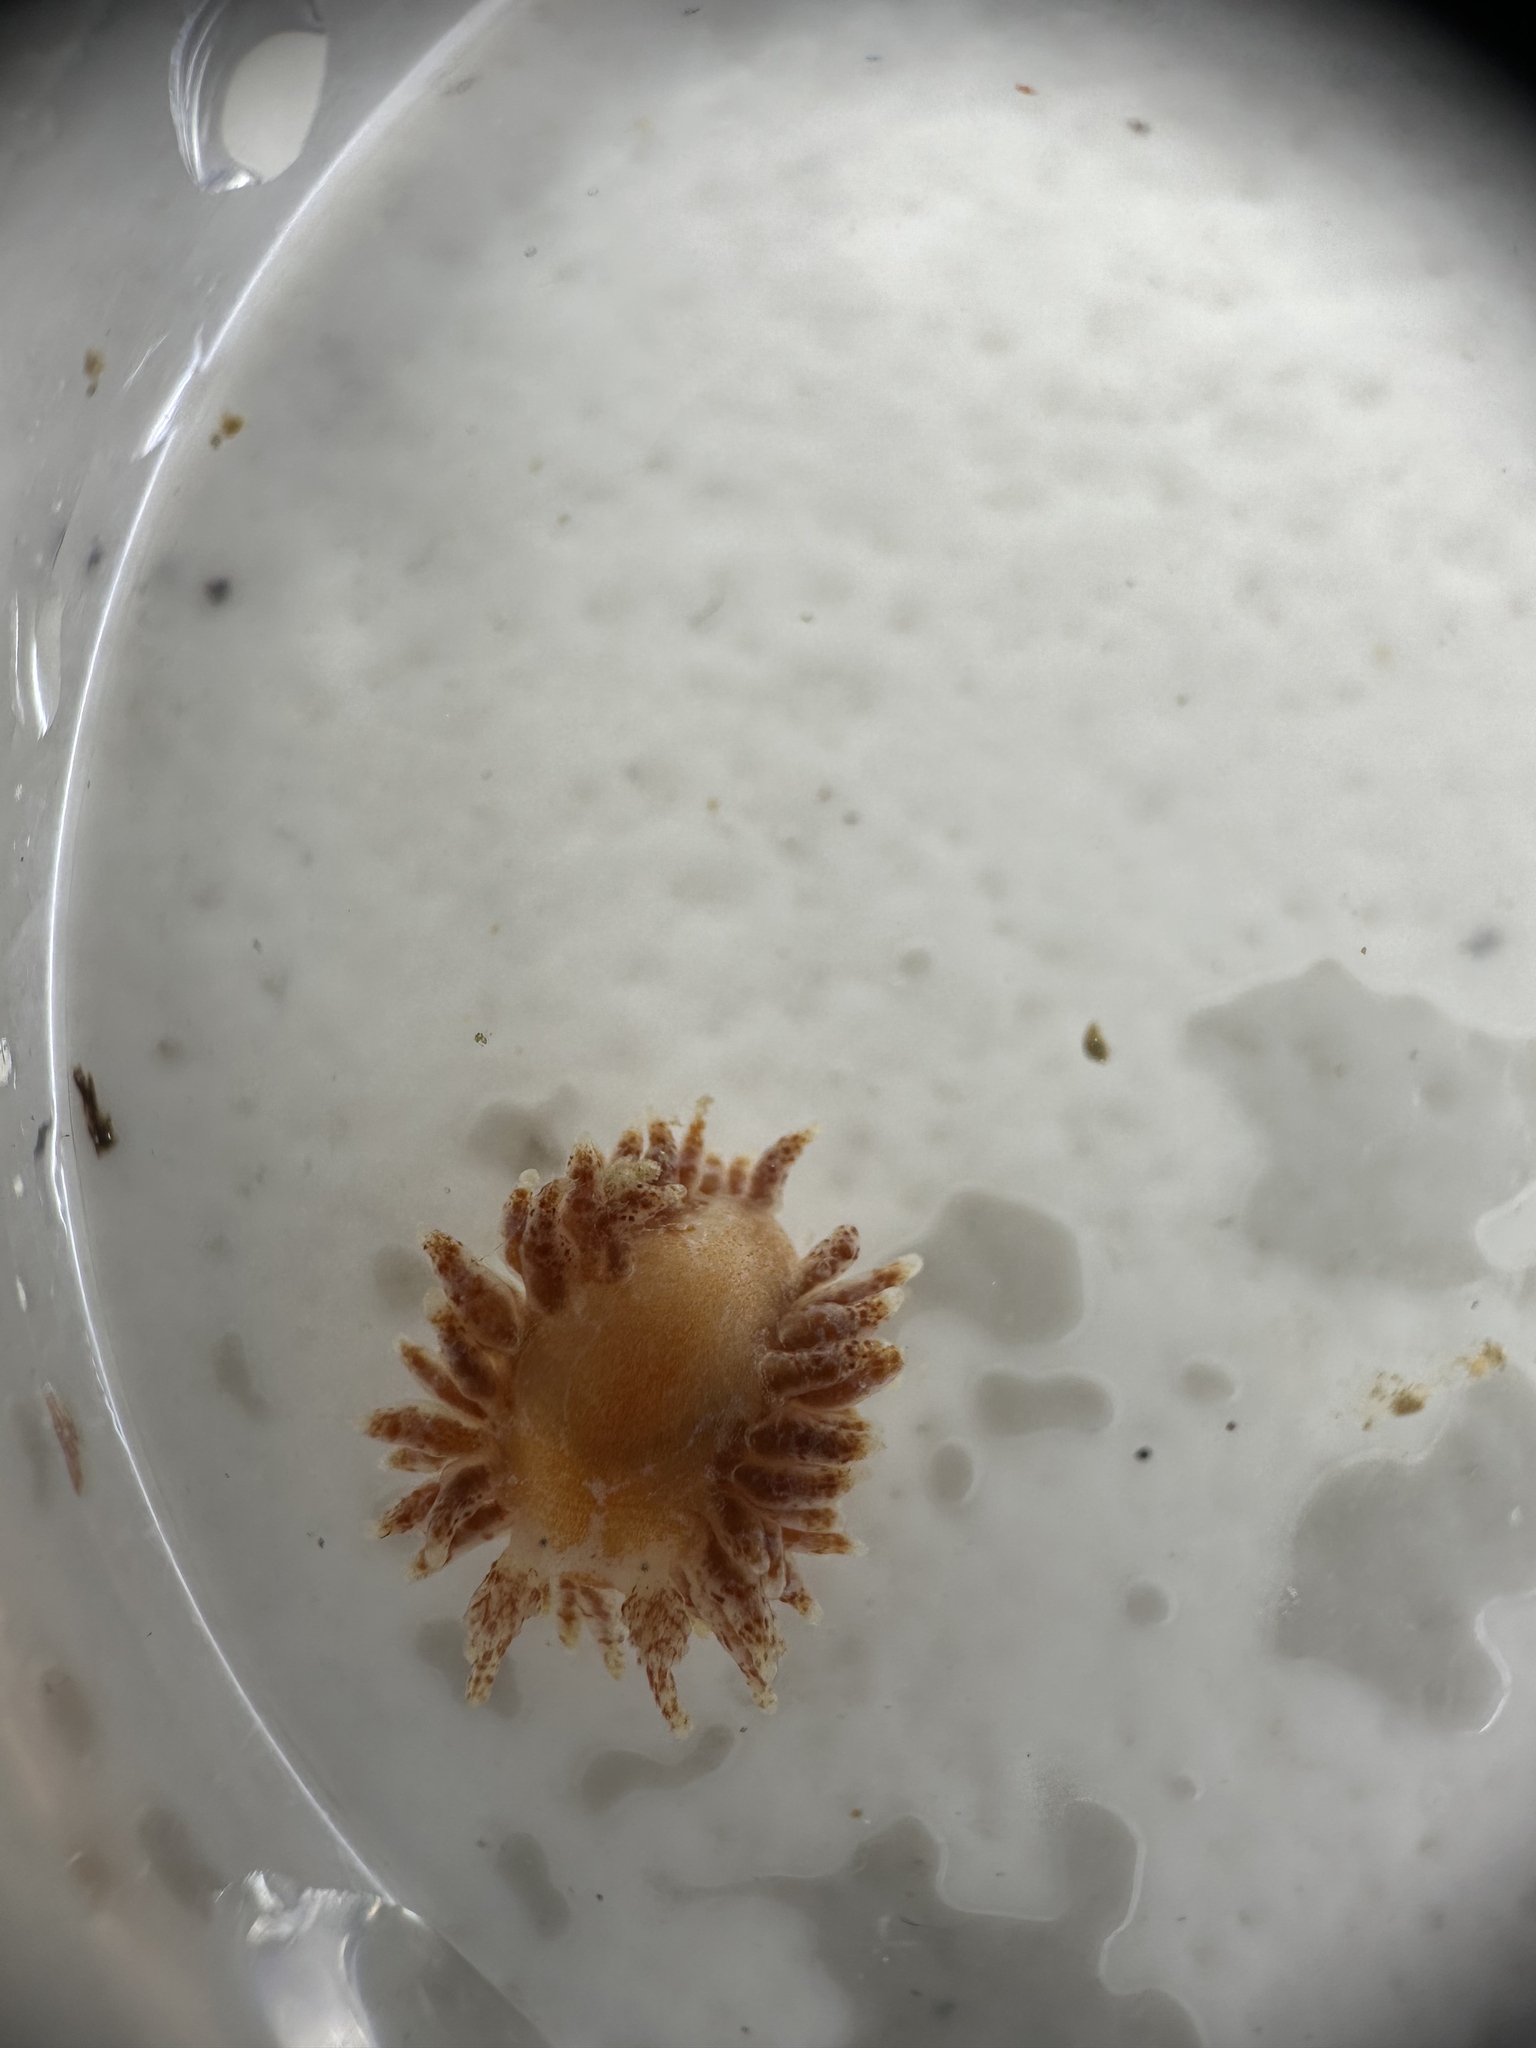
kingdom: Animalia
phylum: Mollusca
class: Gastropoda
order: Nudibranchia
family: Proctonotidae
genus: Caldukia
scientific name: Caldukia affinis
